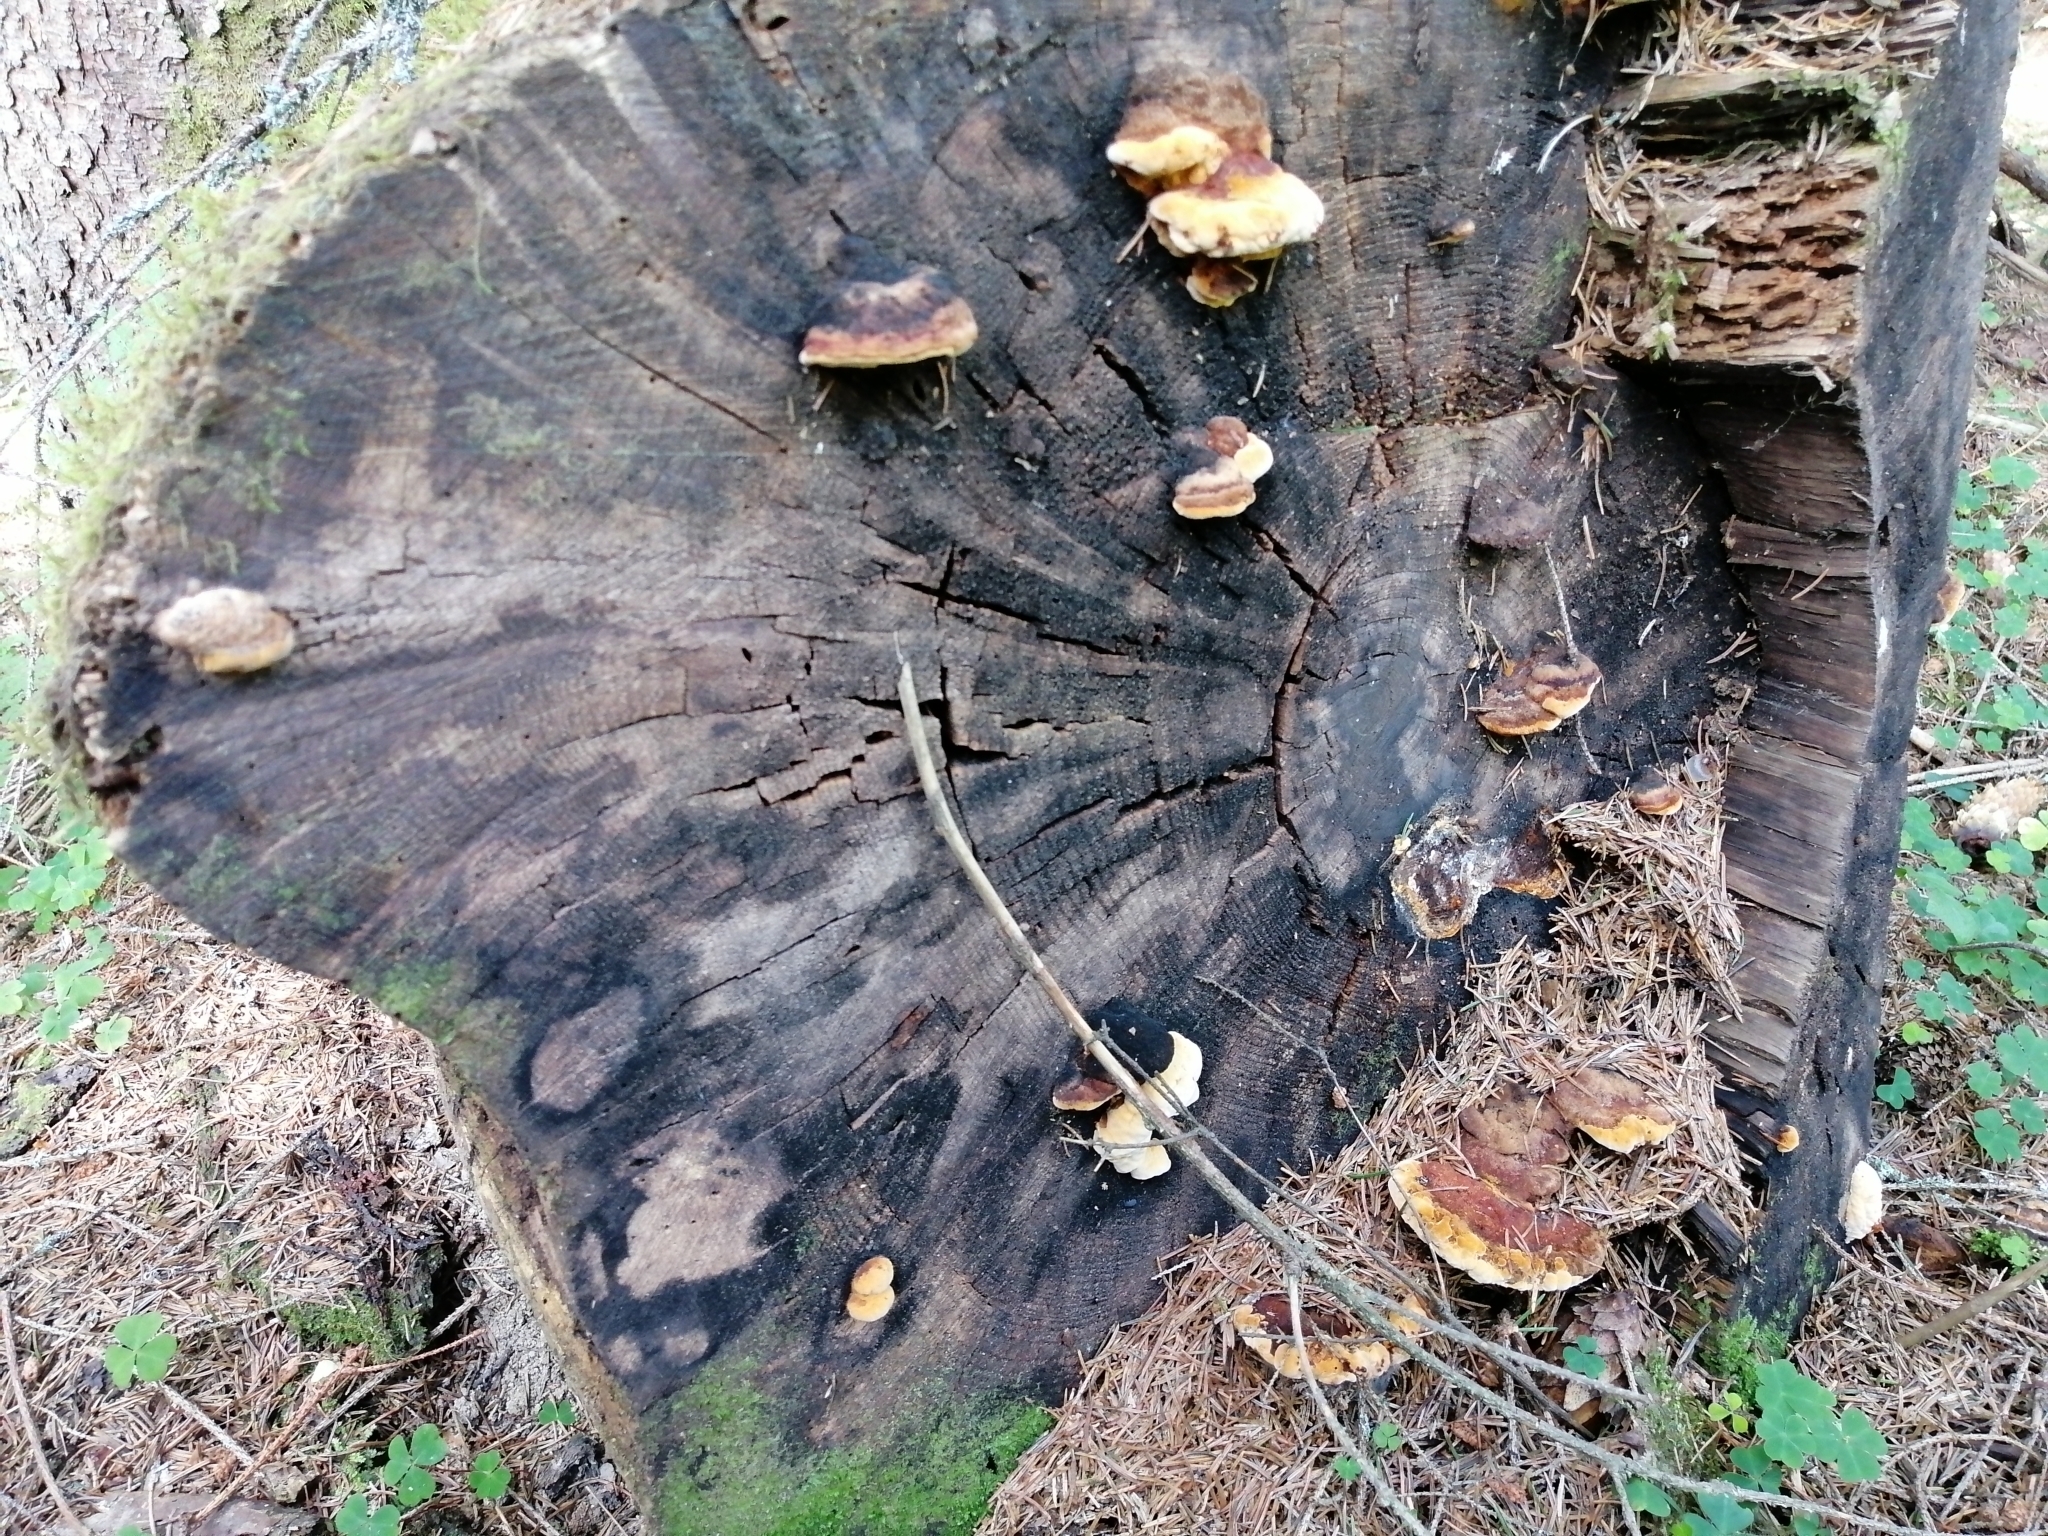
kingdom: Fungi
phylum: Basidiomycota
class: Agaricomycetes
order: Gloeophyllales
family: Gloeophyllaceae
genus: Gloeophyllum
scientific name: Gloeophyllum odoratum
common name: Anise mazegill
